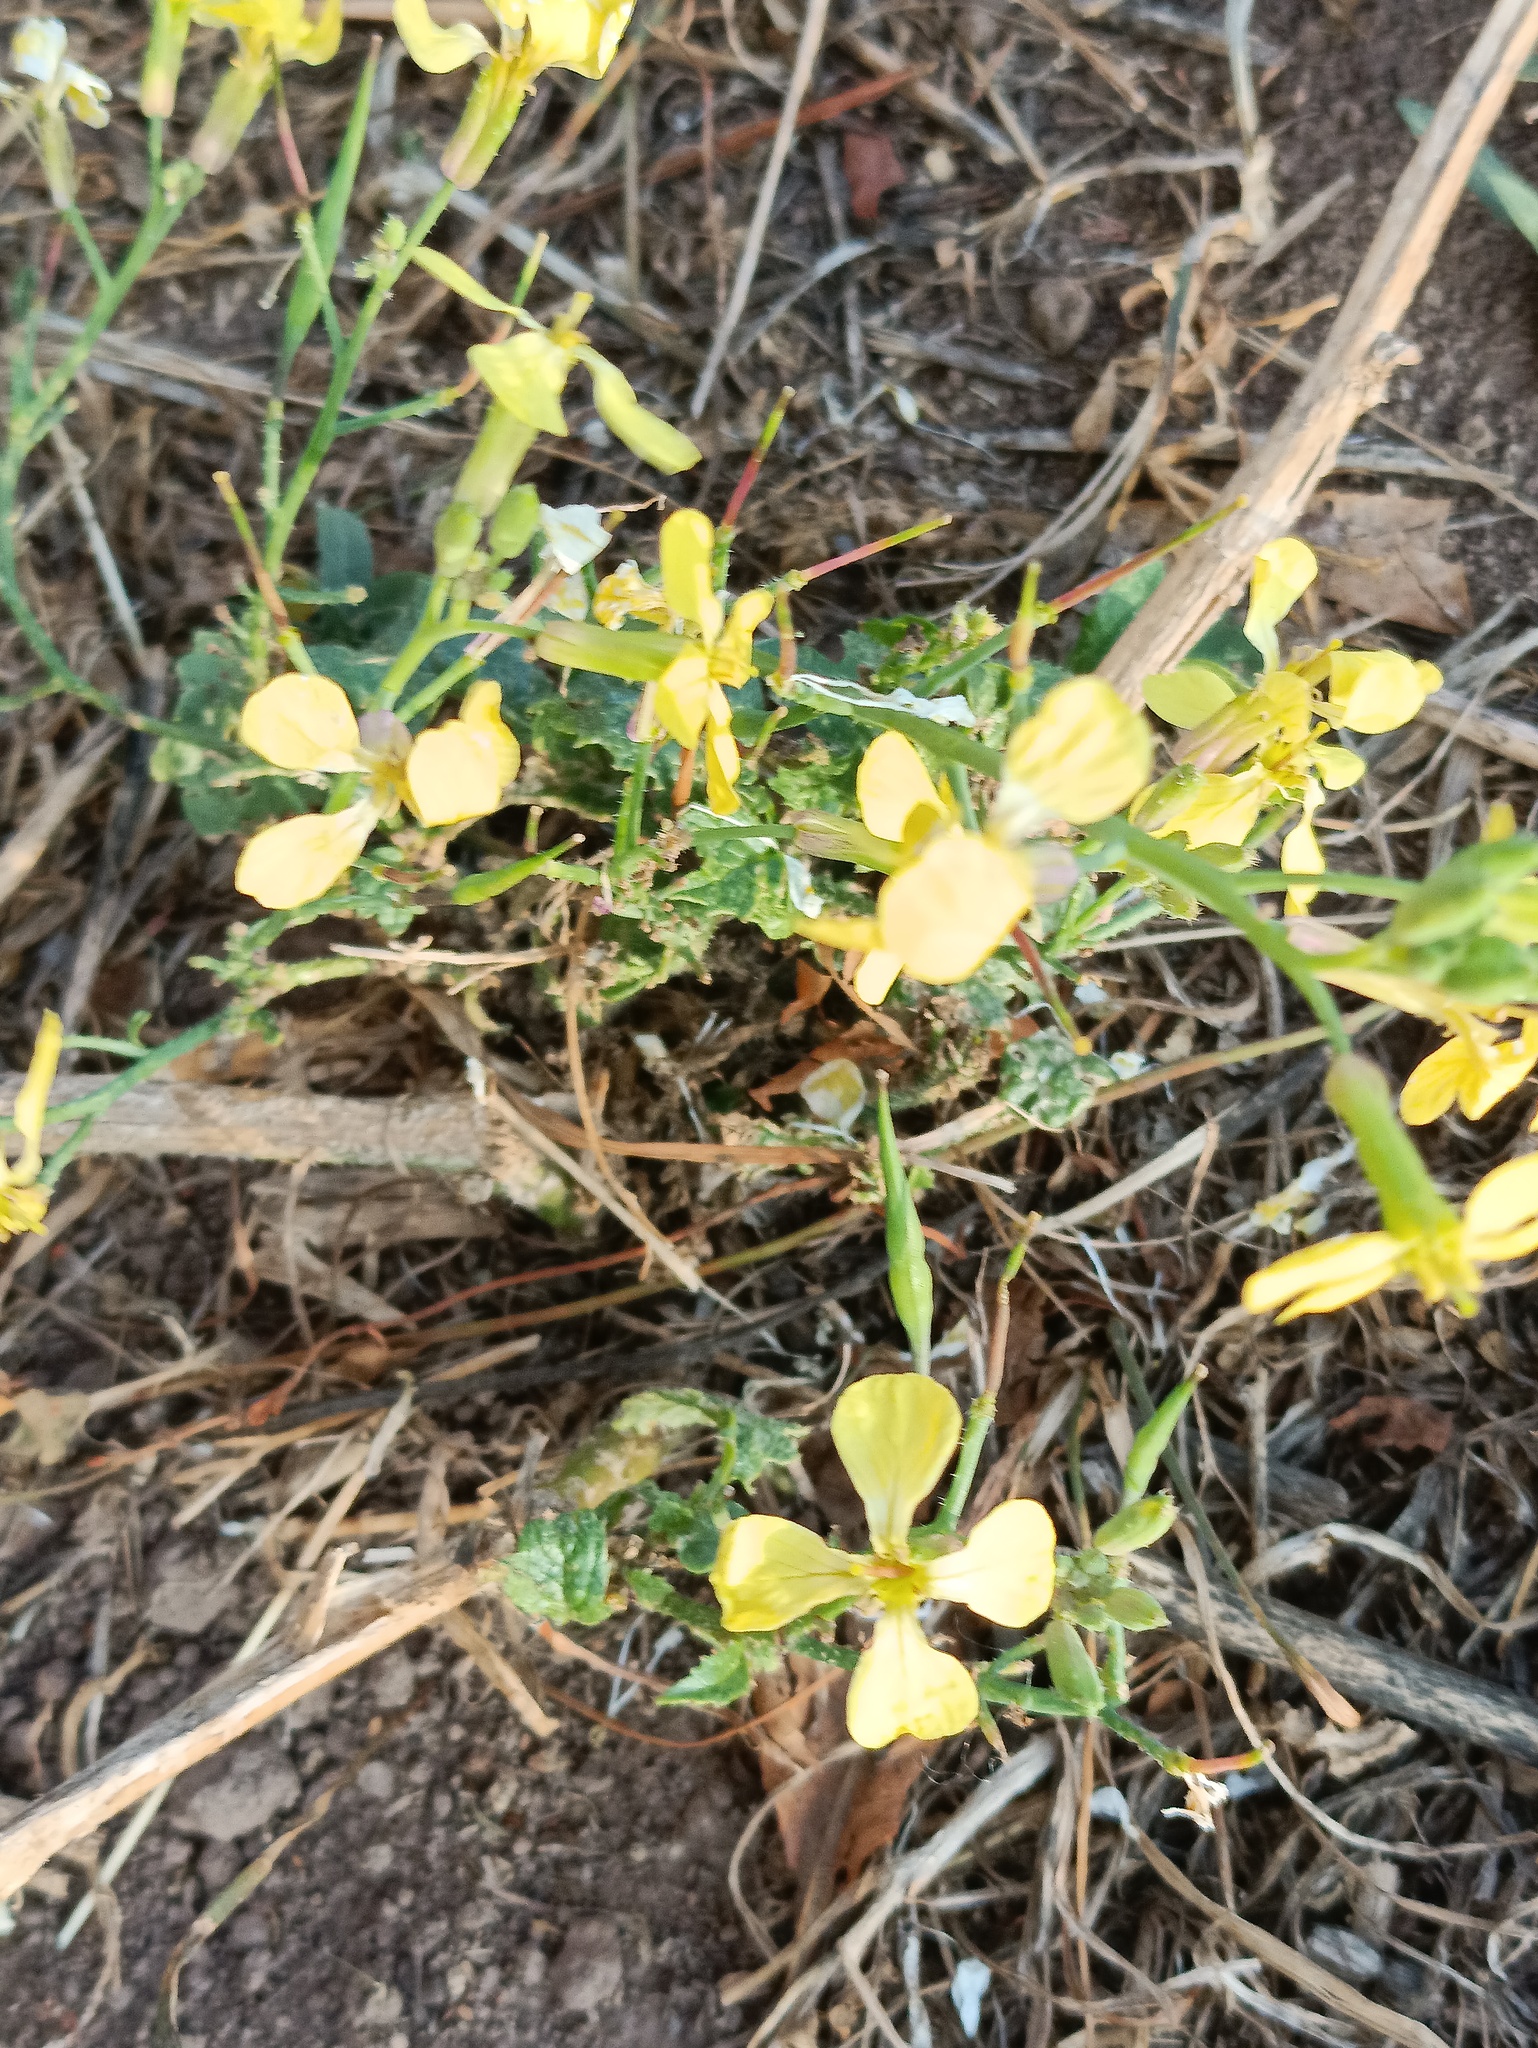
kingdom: Plantae
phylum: Tracheophyta
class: Magnoliopsida
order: Brassicales
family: Brassicaceae
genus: Raphanus
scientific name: Raphanus raphanistrum
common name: Wild radish
